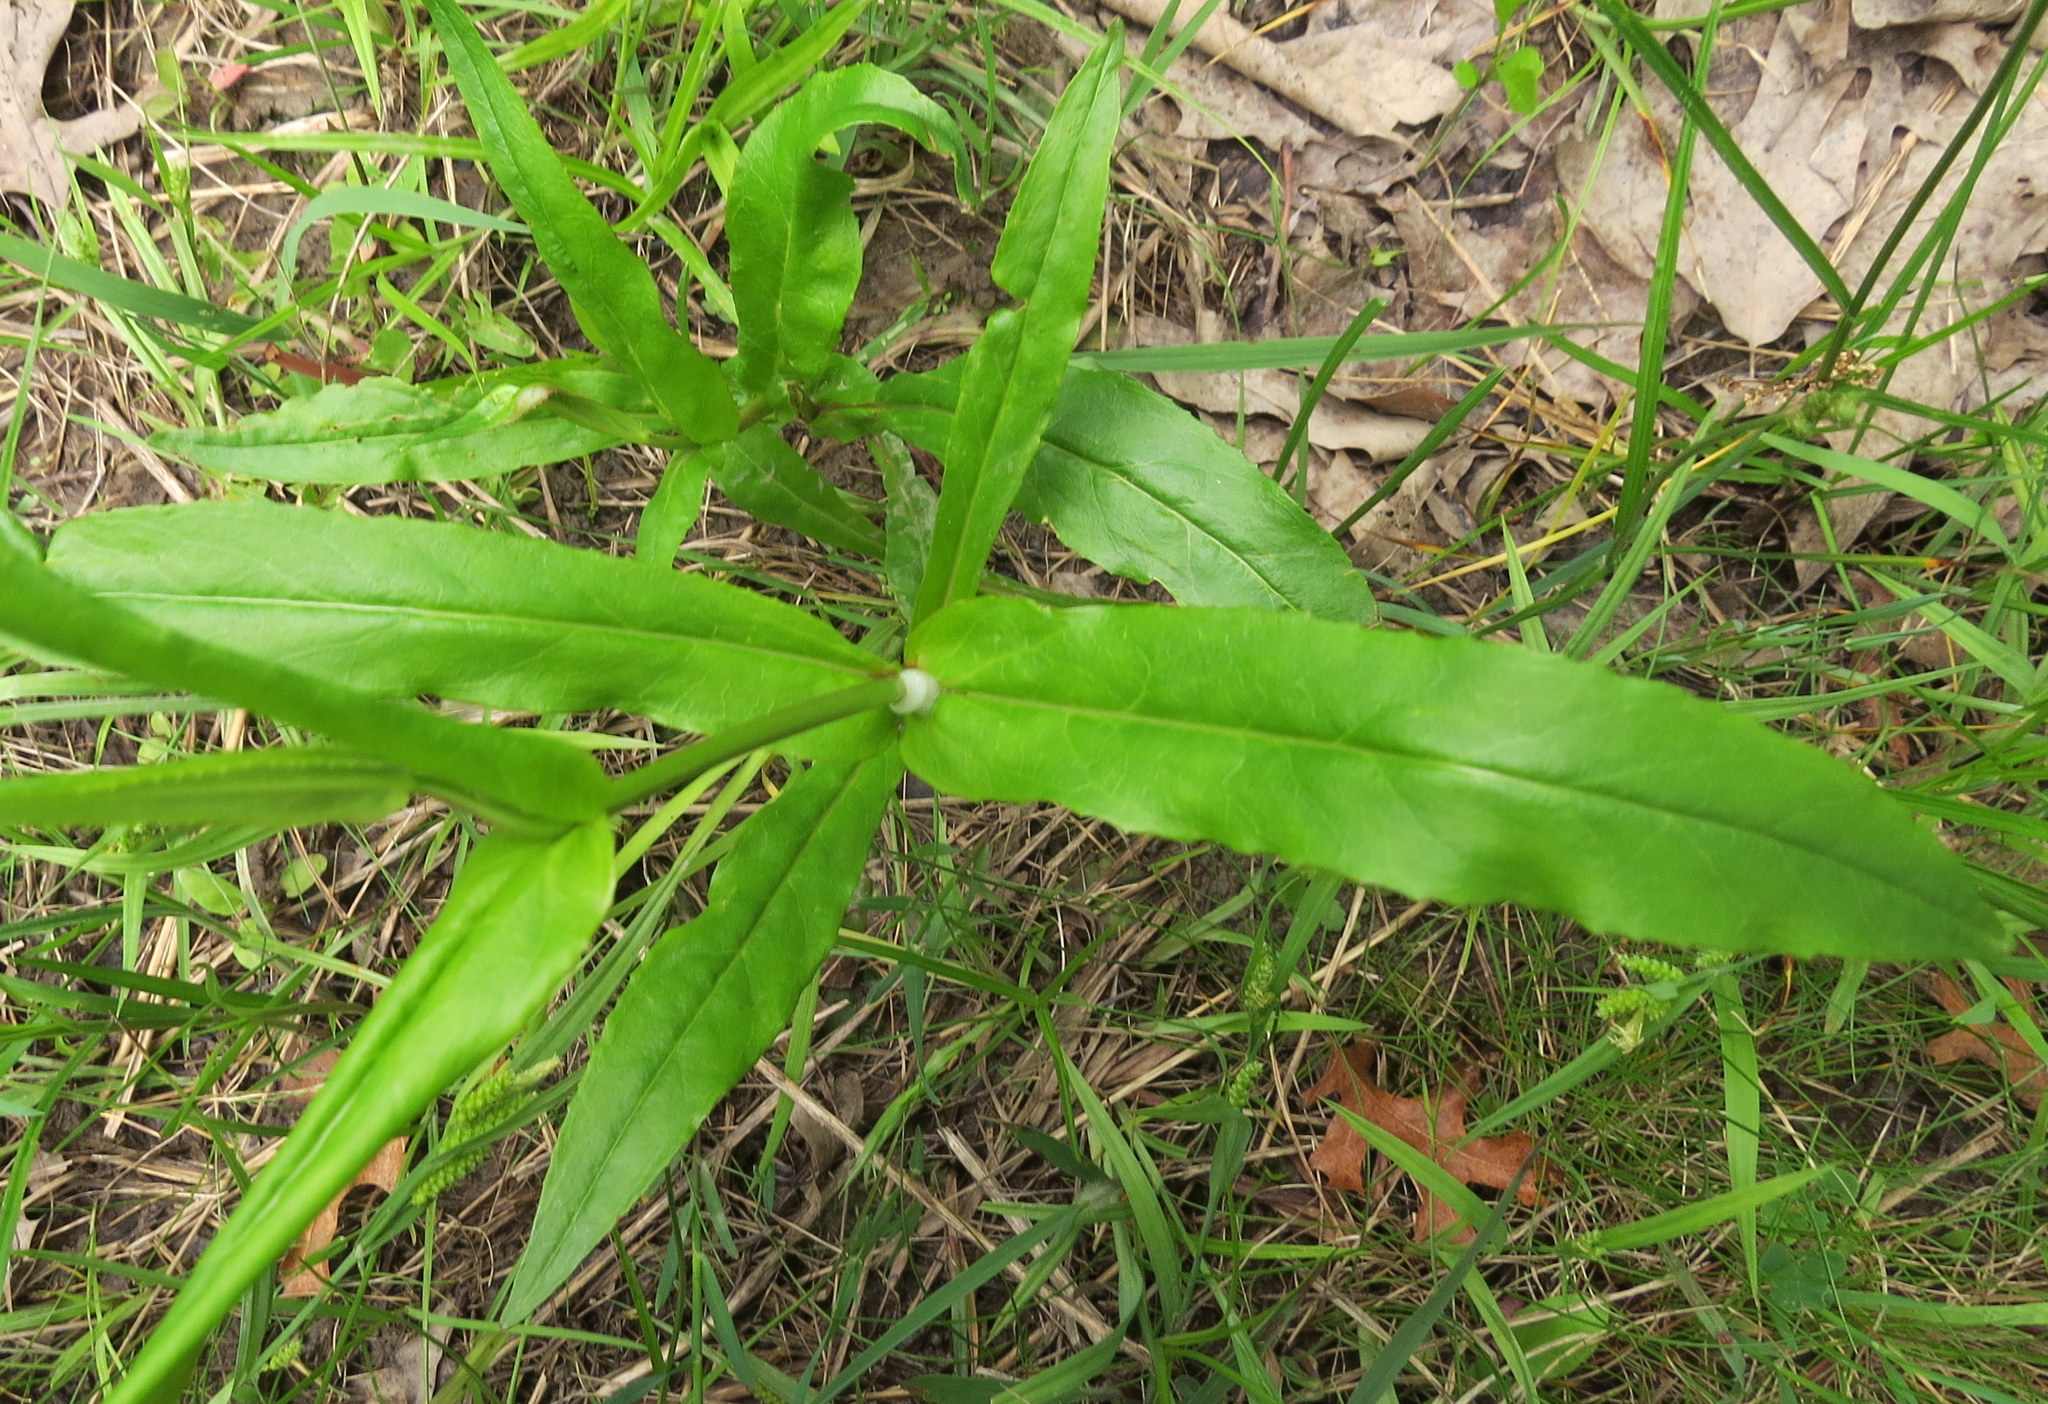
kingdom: Plantae
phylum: Tracheophyta
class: Magnoliopsida
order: Lamiales
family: Plantaginaceae
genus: Penstemon
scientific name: Penstemon digitalis
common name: Foxglove beardtongue
